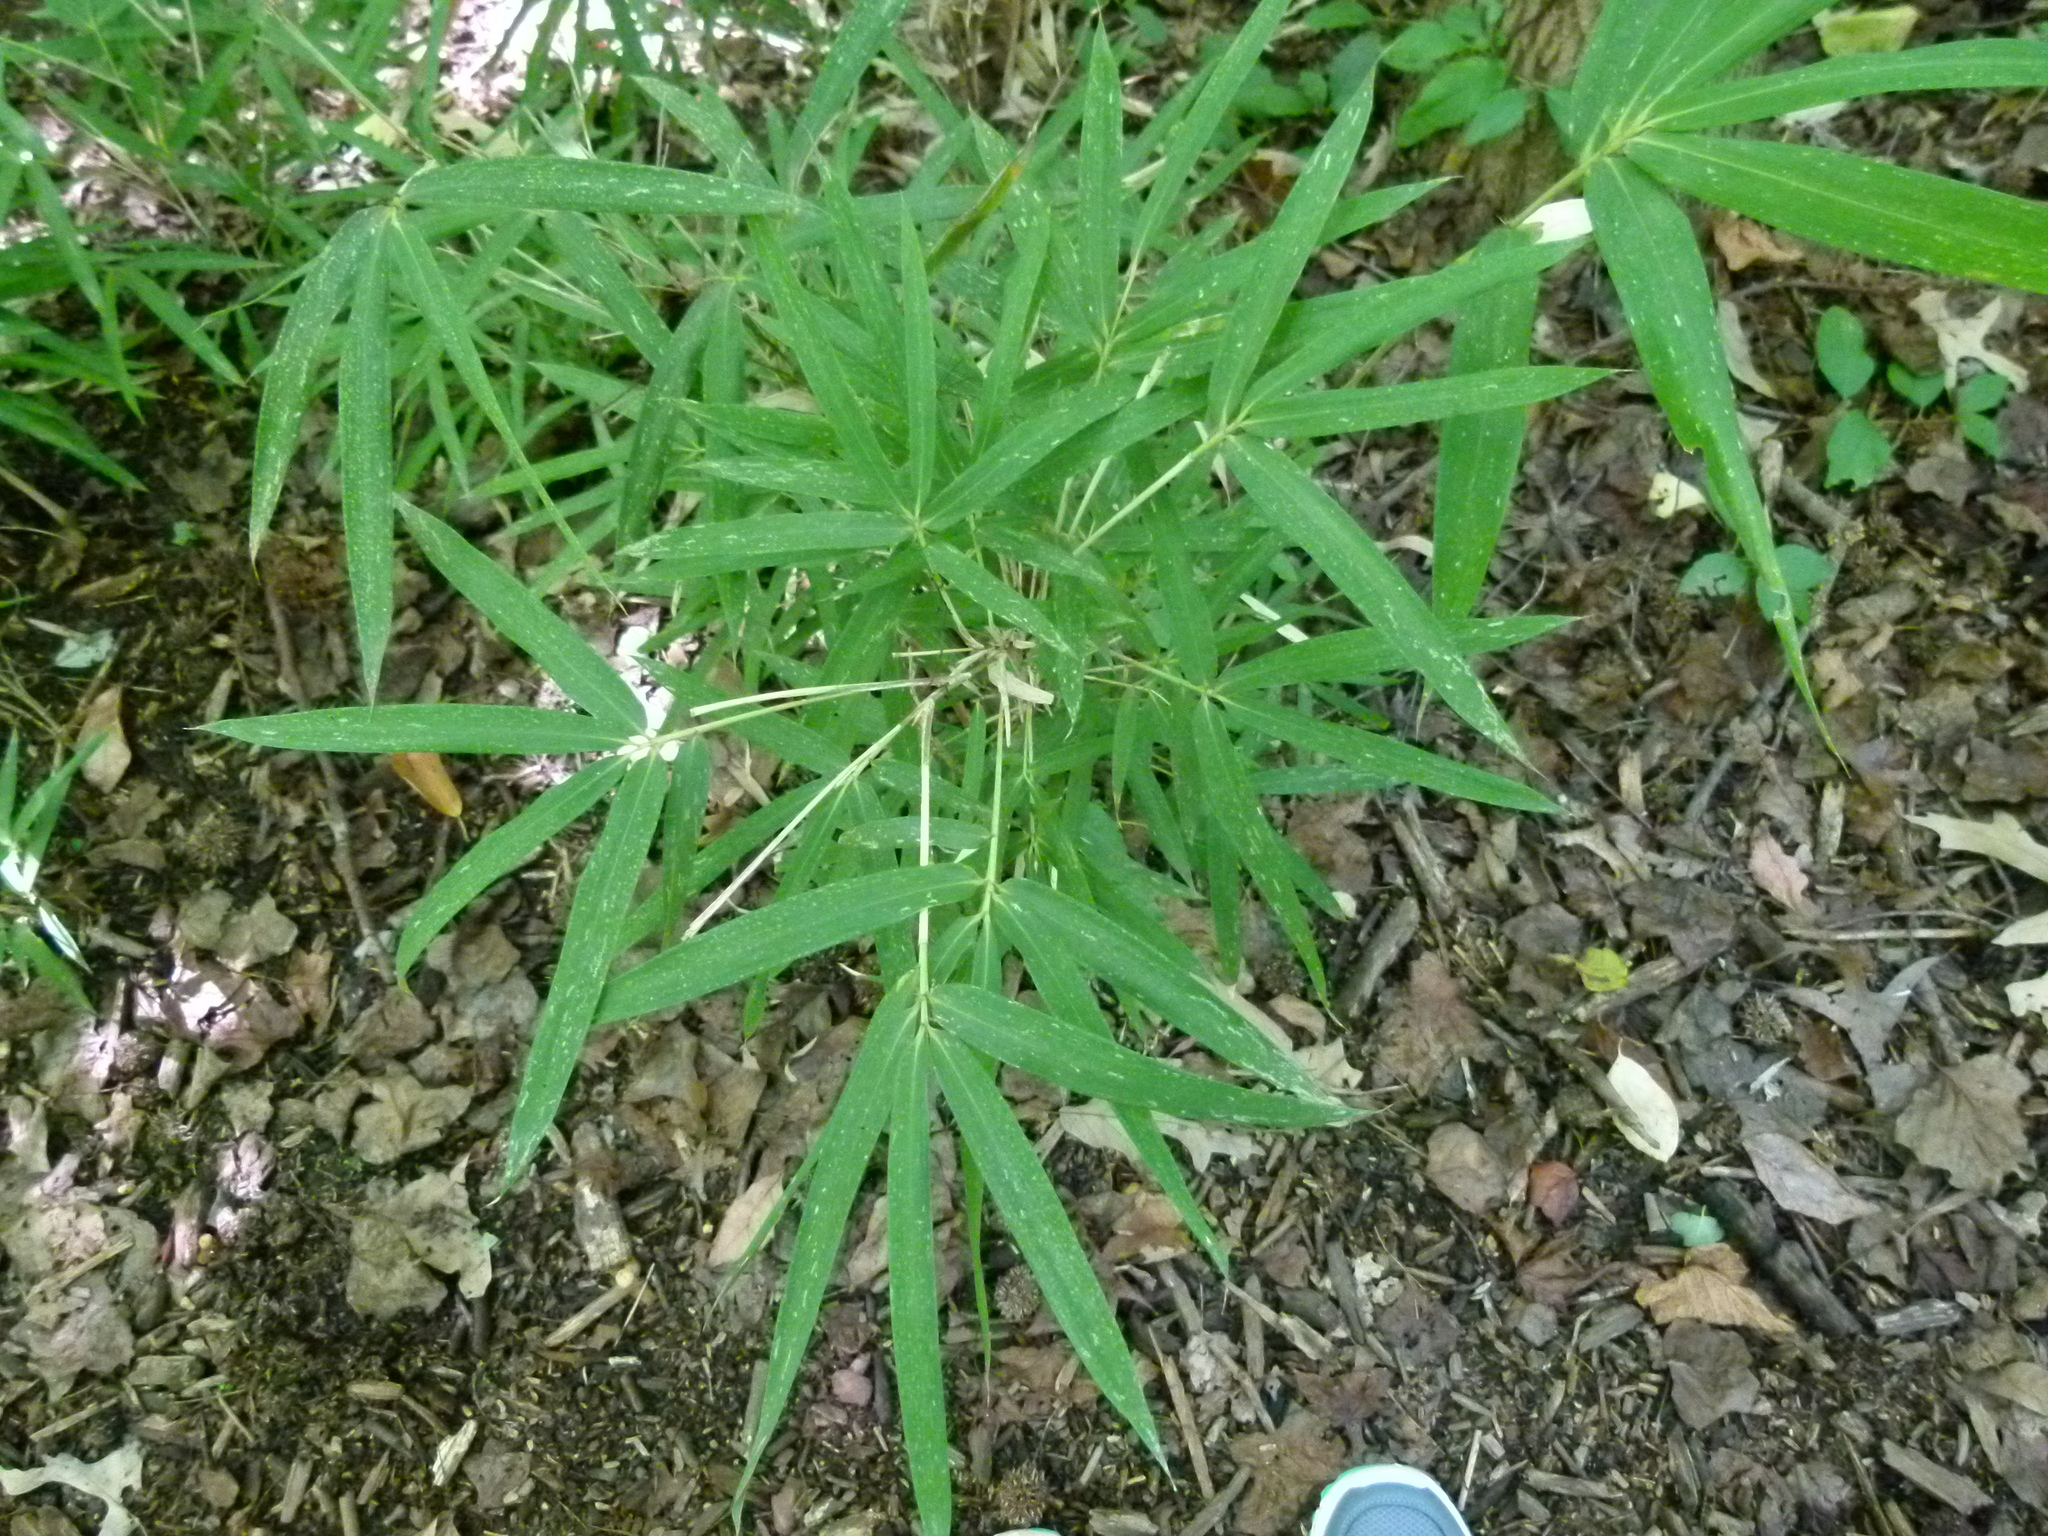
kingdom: Plantae
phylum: Tracheophyta
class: Liliopsida
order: Poales
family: Poaceae
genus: Arundinaria
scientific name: Arundinaria gigantea
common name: Giant cane
